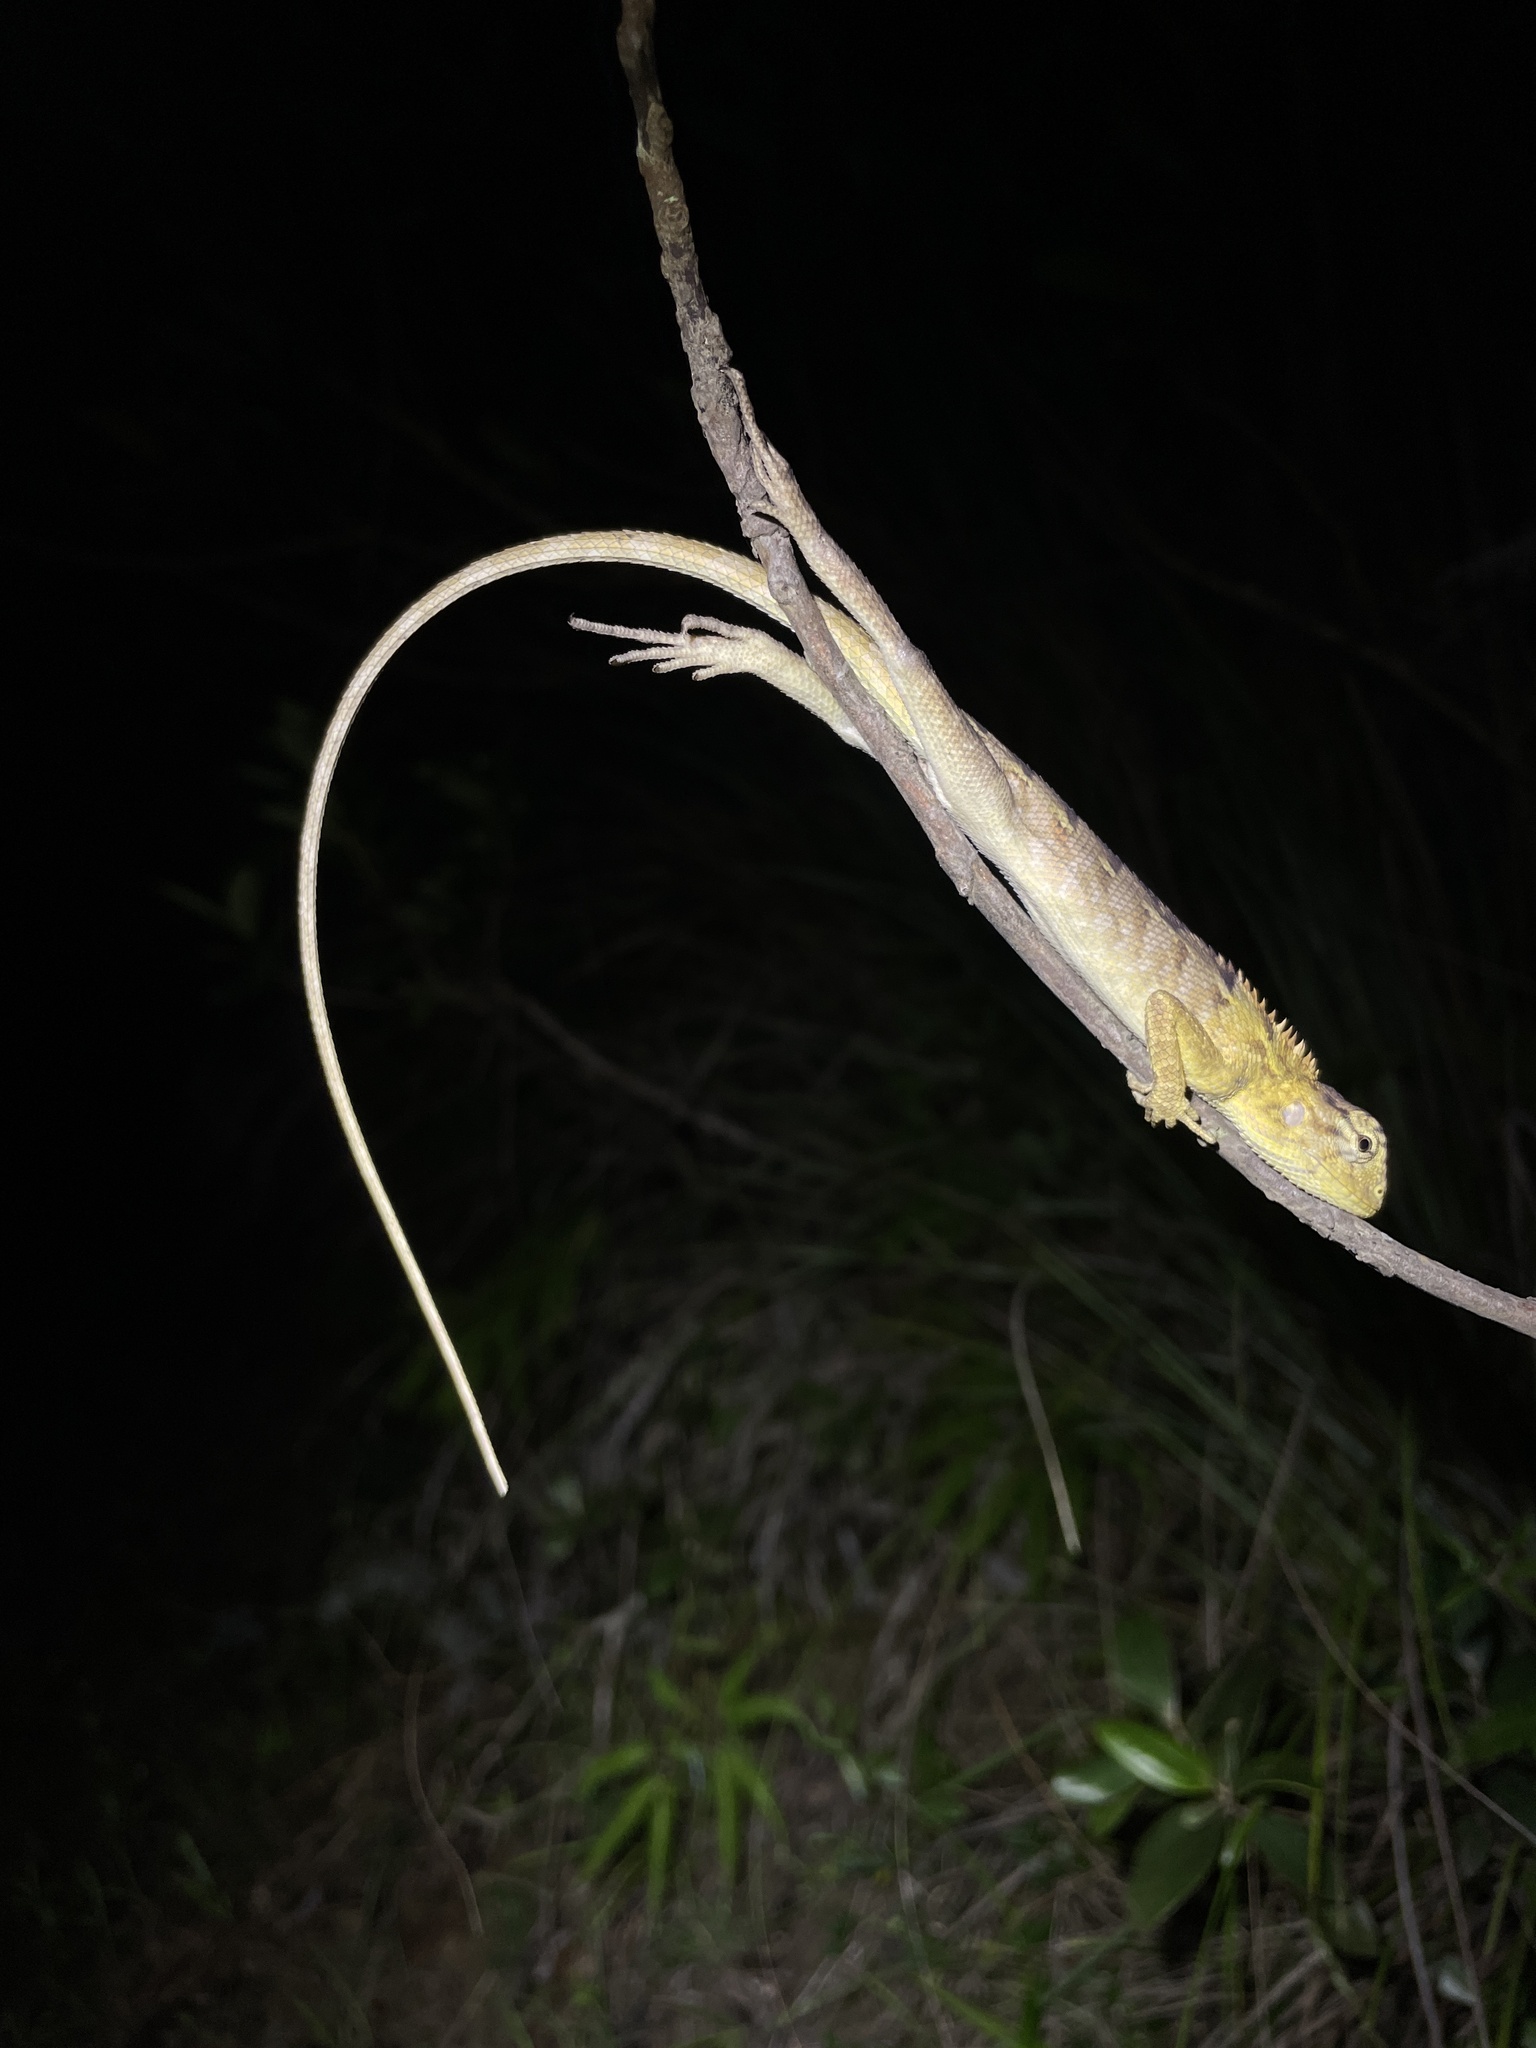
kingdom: Animalia
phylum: Chordata
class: Squamata
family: Agamidae
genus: Calotes
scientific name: Calotes versicolor
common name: Oriental garden lizard
